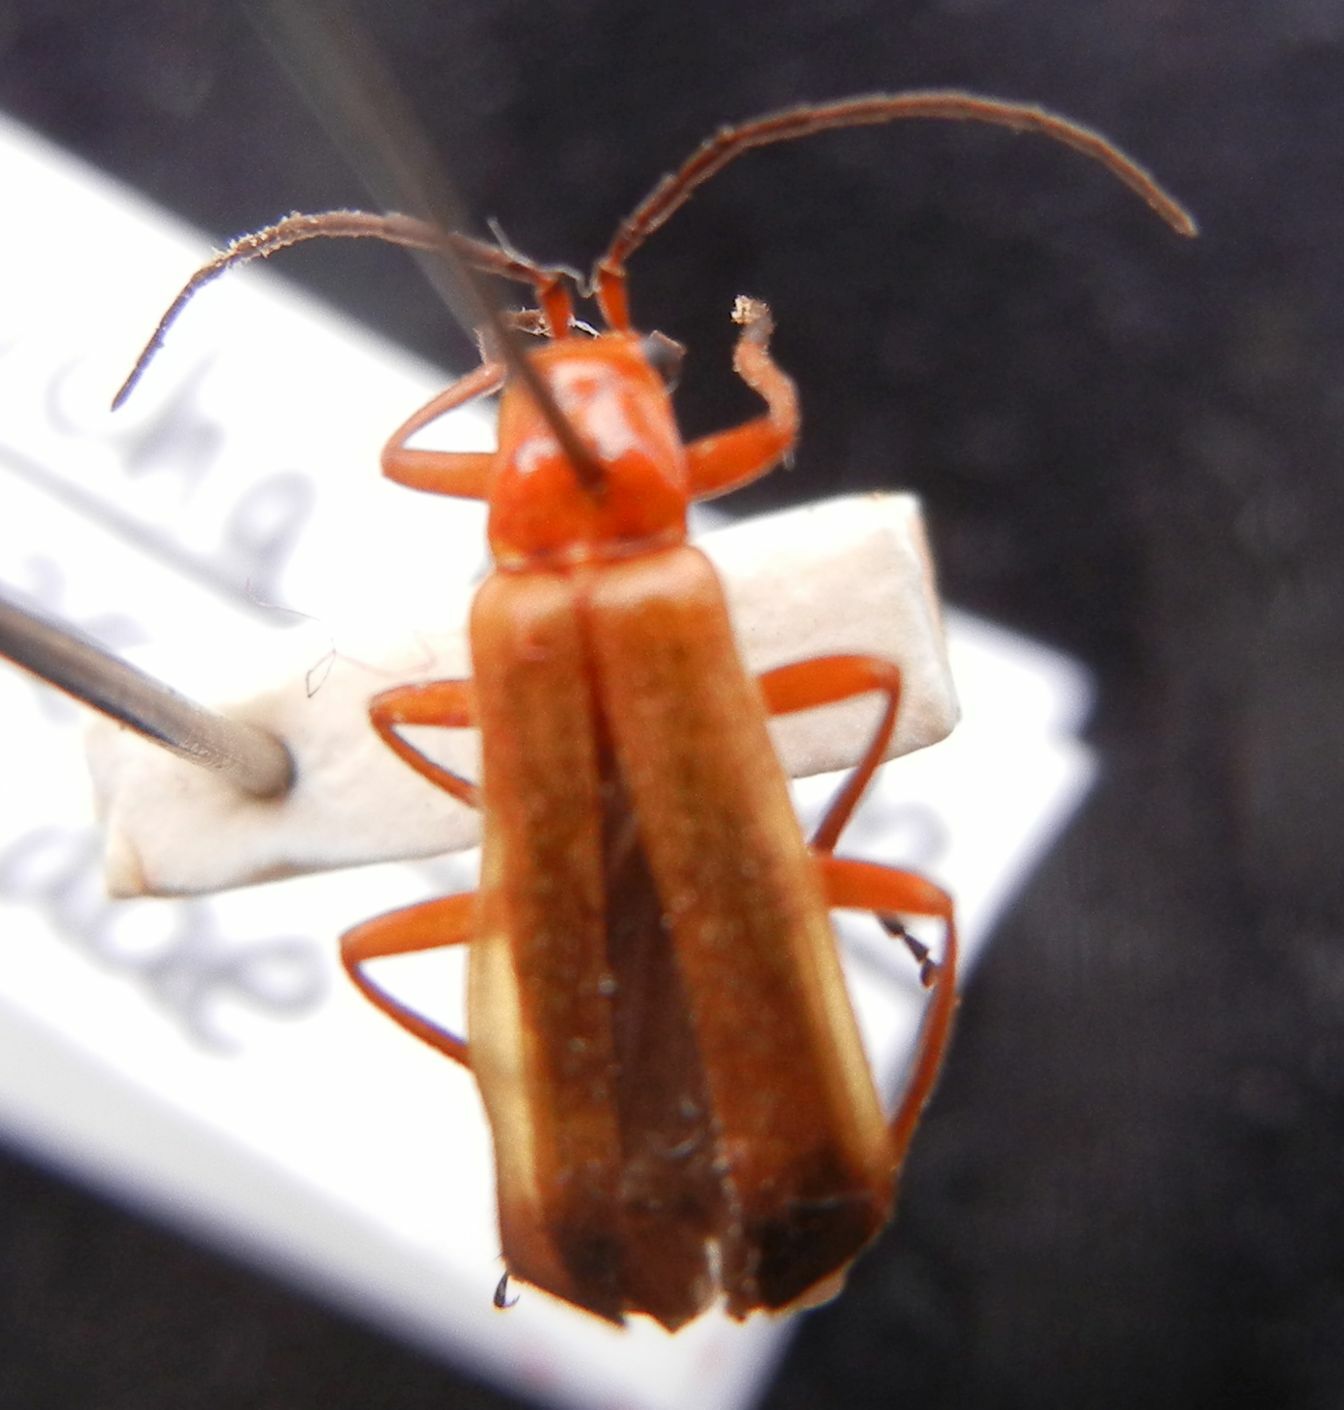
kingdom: Animalia
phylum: Arthropoda
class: Insecta
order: Coleoptera
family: Cantharidae
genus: Rhagonycha
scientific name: Rhagonycha fulva
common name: Common red soldier beetle
